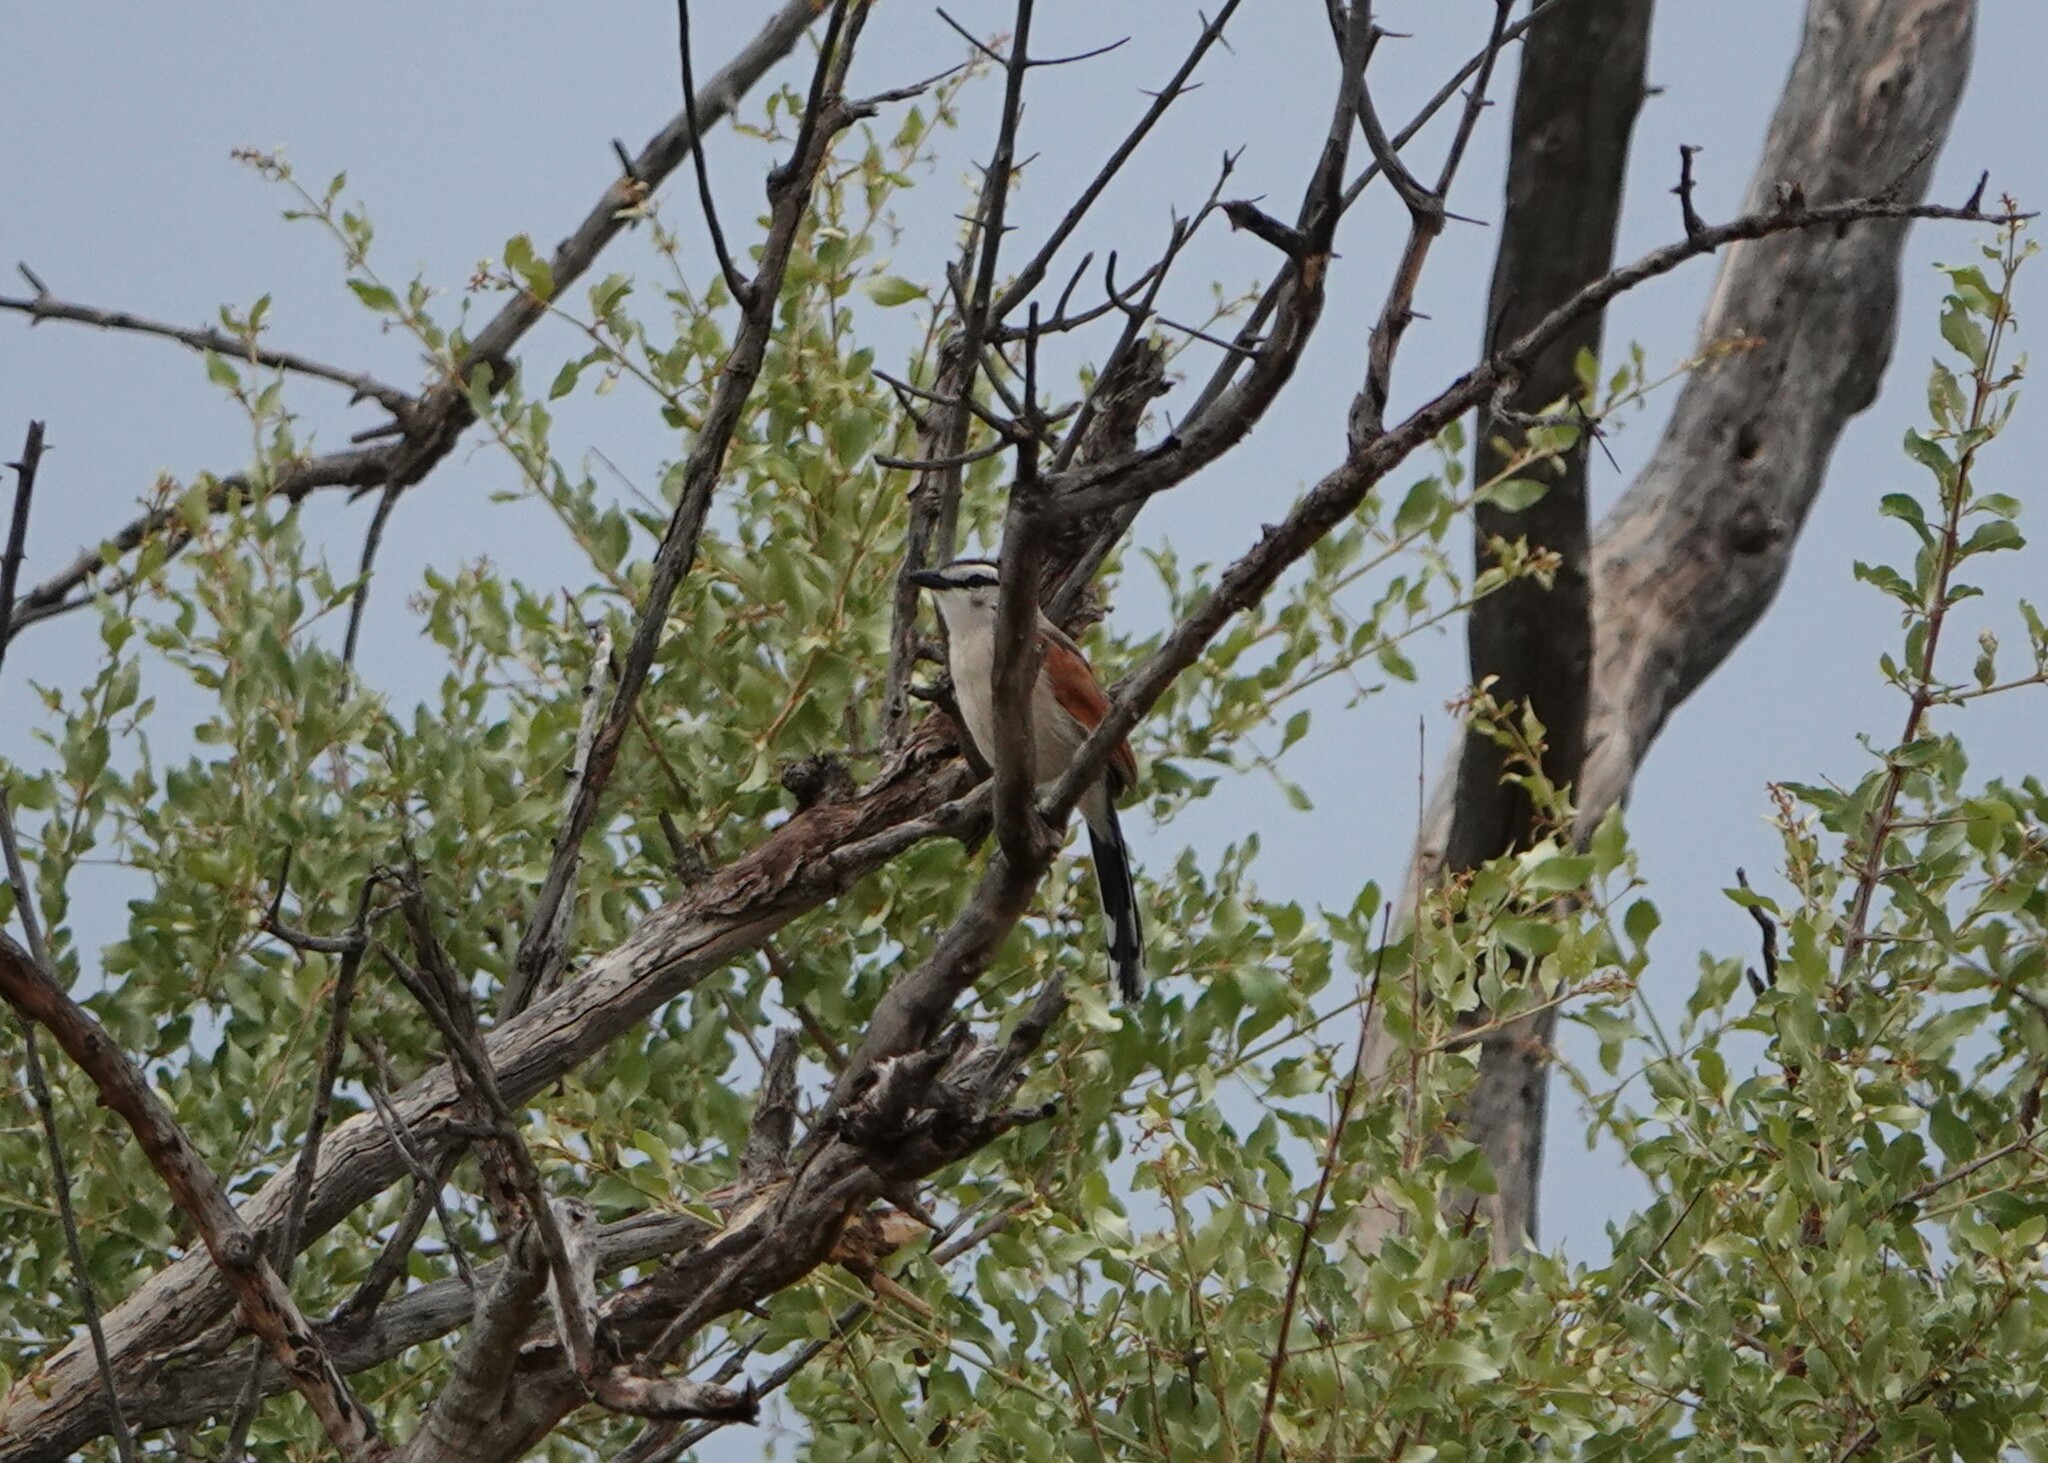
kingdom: Animalia
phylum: Chordata
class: Aves
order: Passeriformes
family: Malaconotidae
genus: Tchagra
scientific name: Tchagra senegalus
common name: Black-crowned tchagra
